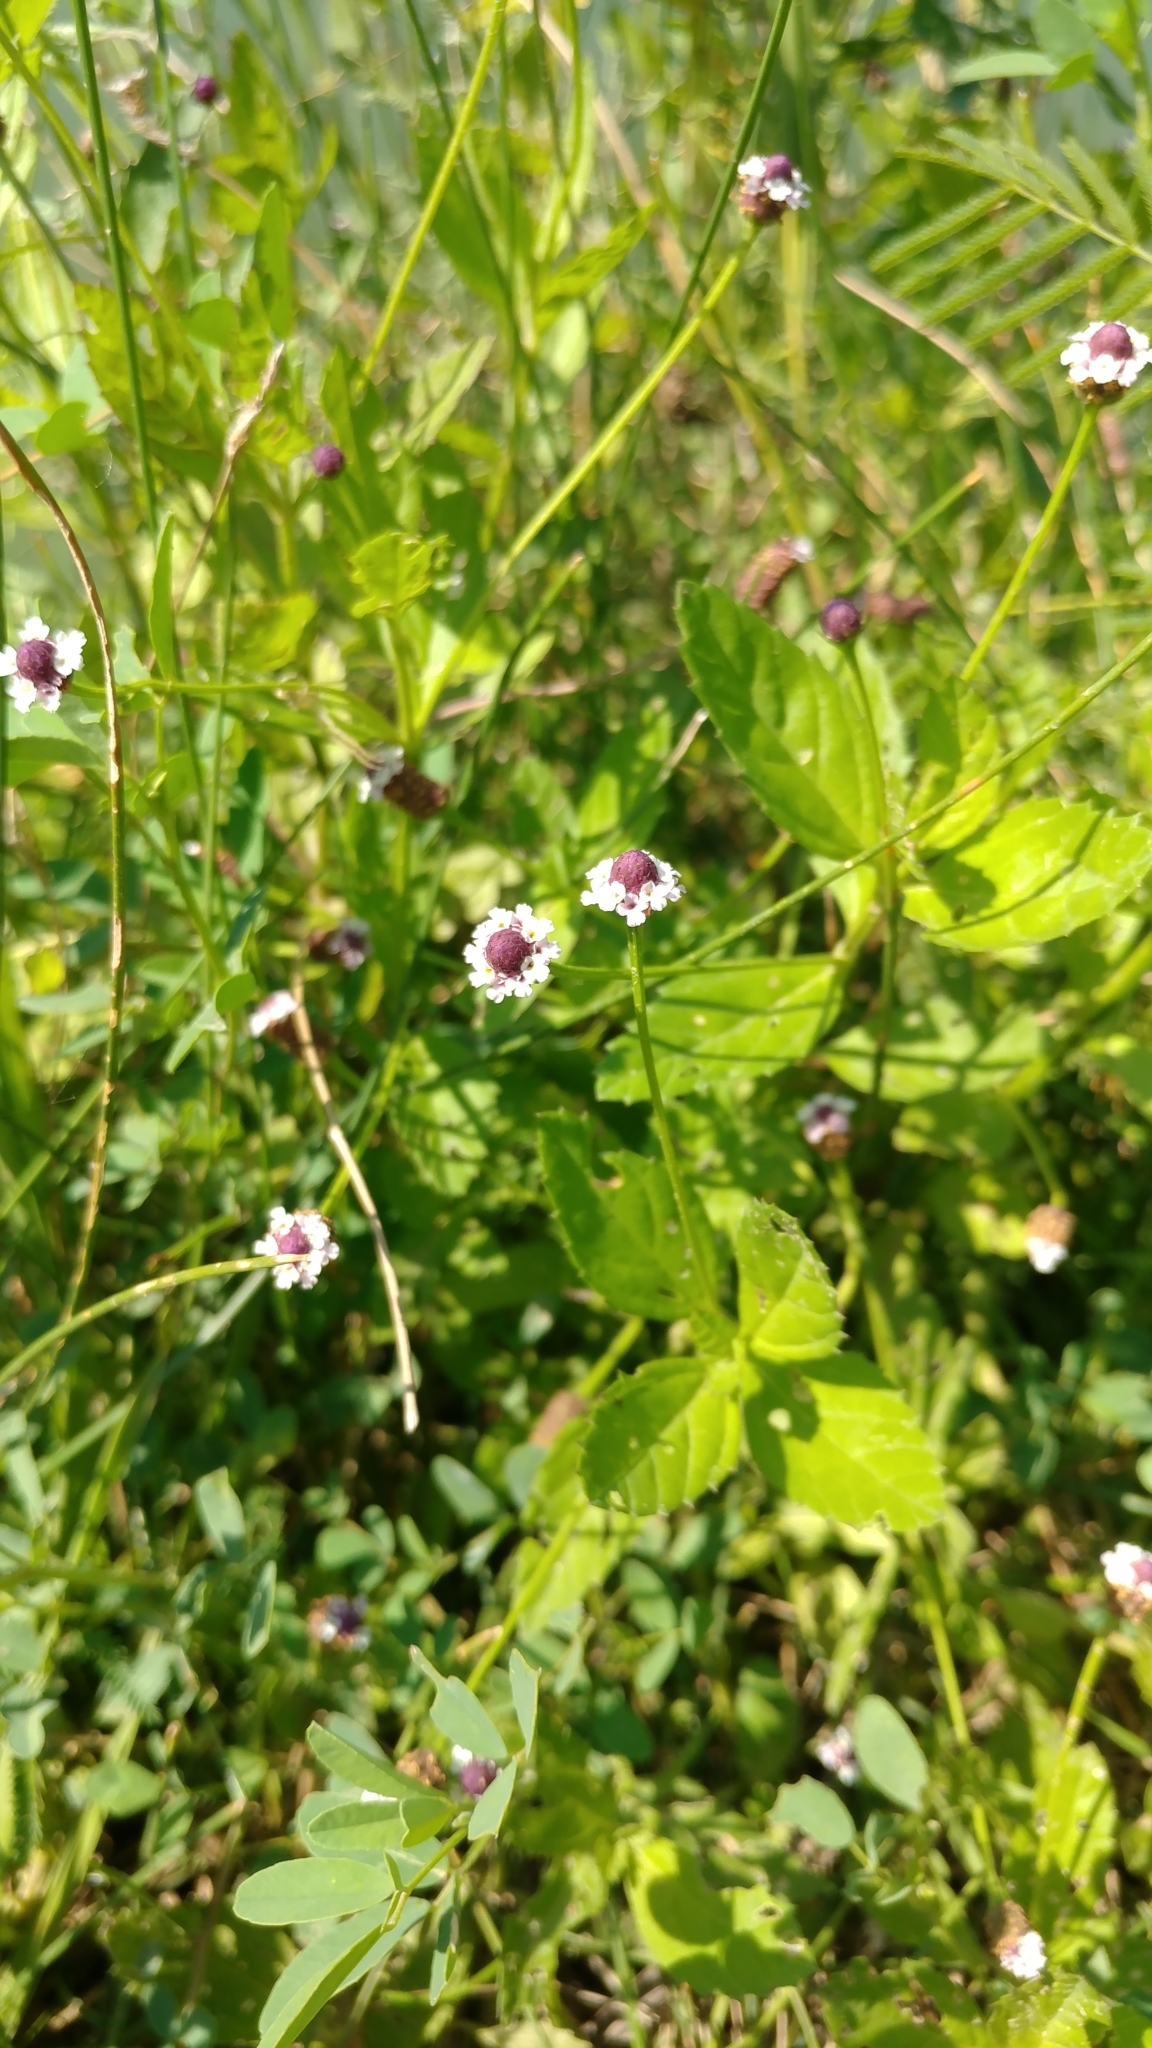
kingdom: Plantae
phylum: Tracheophyta
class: Magnoliopsida
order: Lamiales
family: Verbenaceae
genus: Phyla
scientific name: Phyla lanceolata
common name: Northern fogfruit
